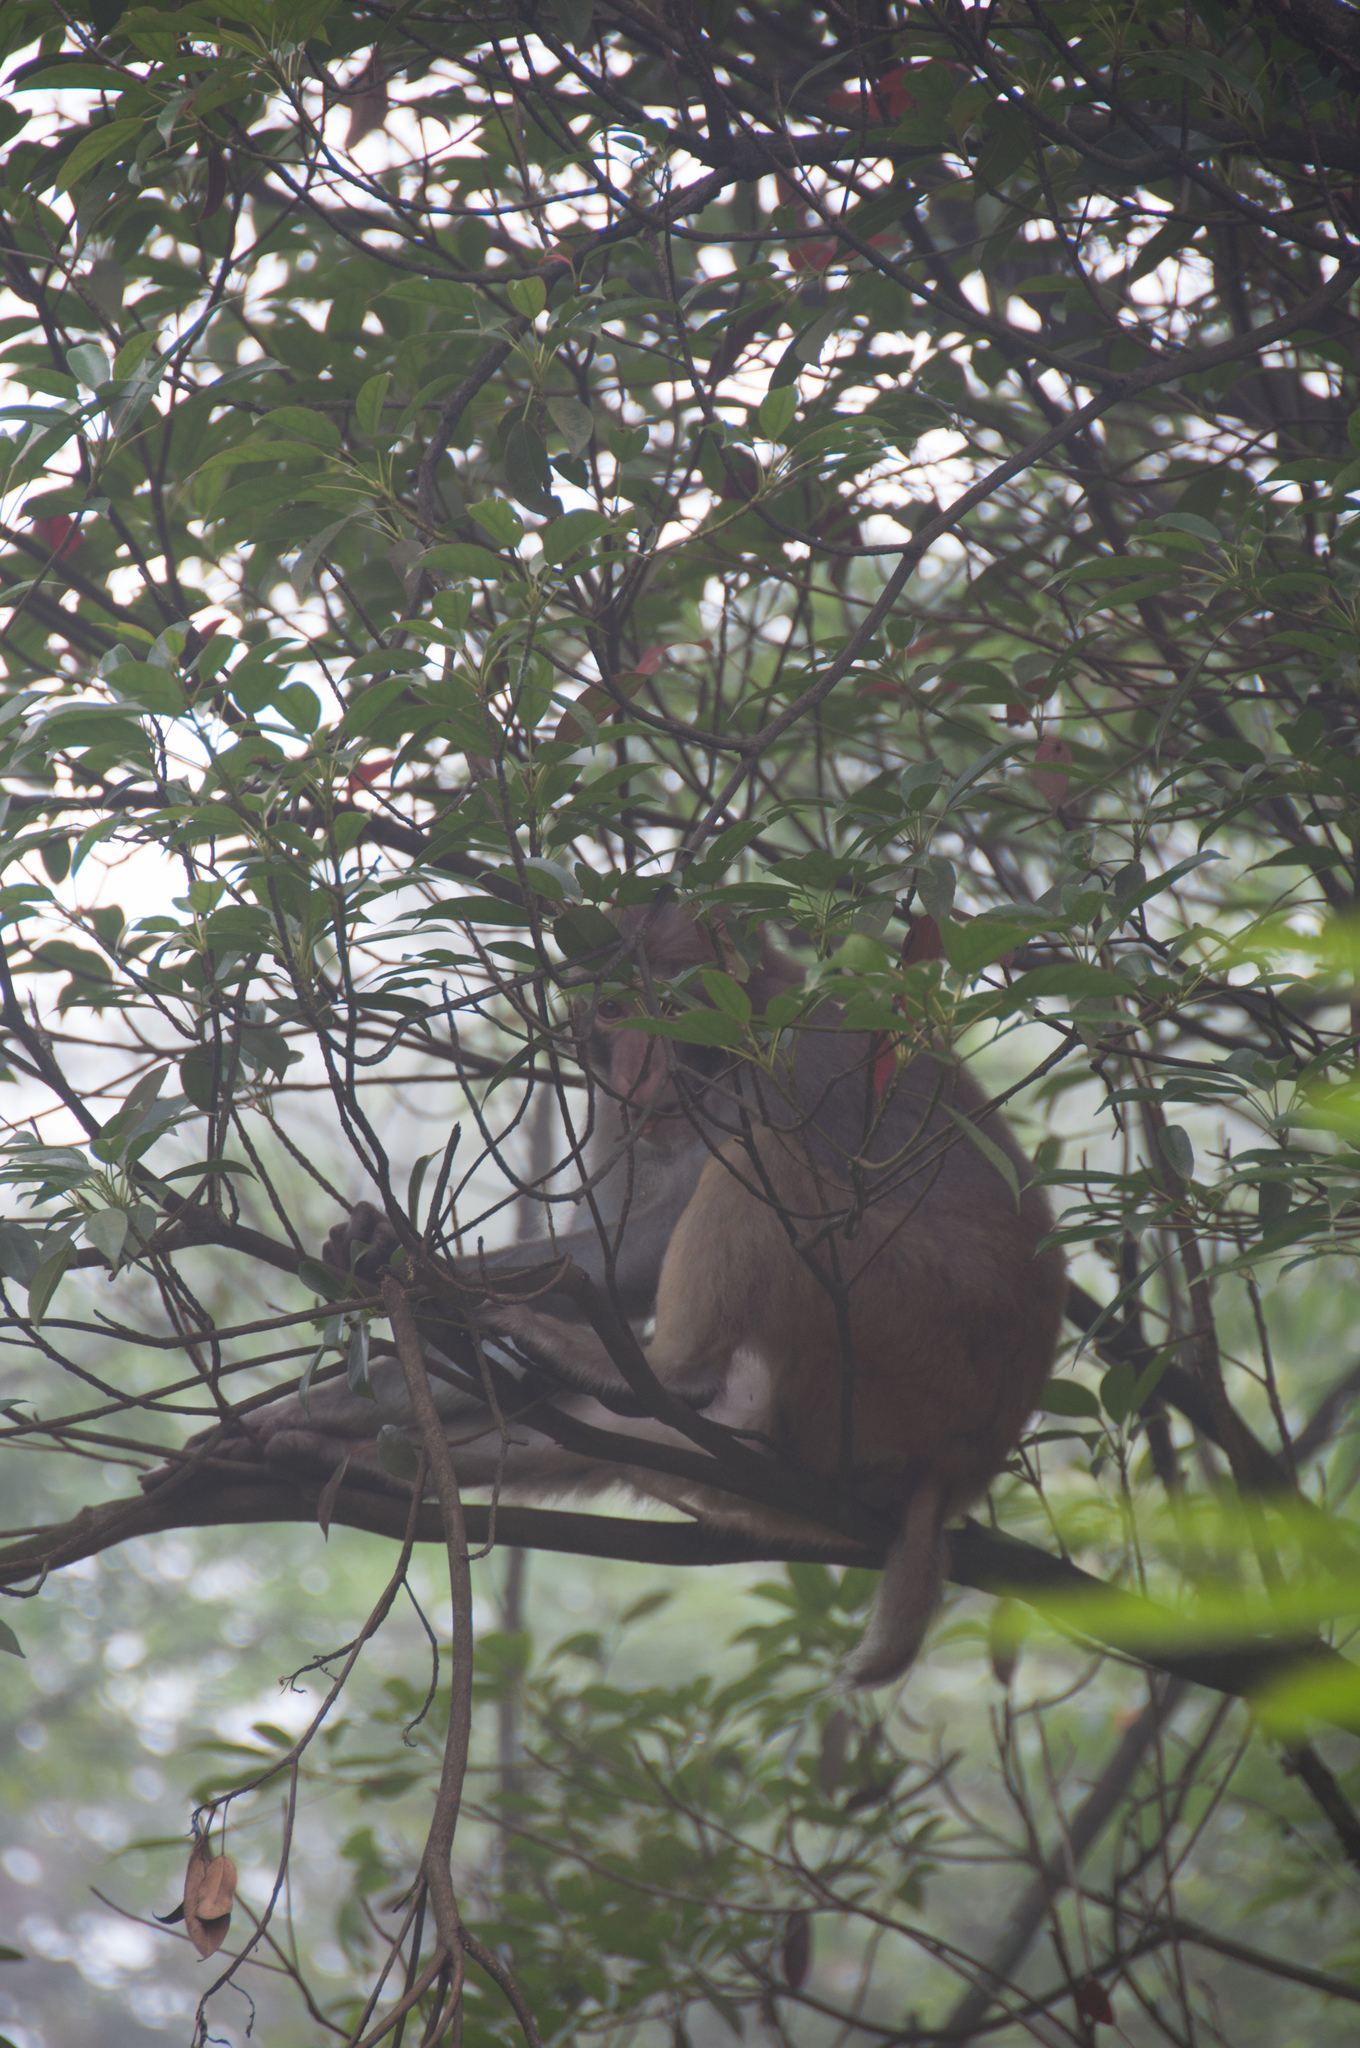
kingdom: Animalia
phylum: Chordata
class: Mammalia
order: Primates
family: Cercopithecidae
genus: Macaca
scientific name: Macaca mulatta
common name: Rhesus monkey
